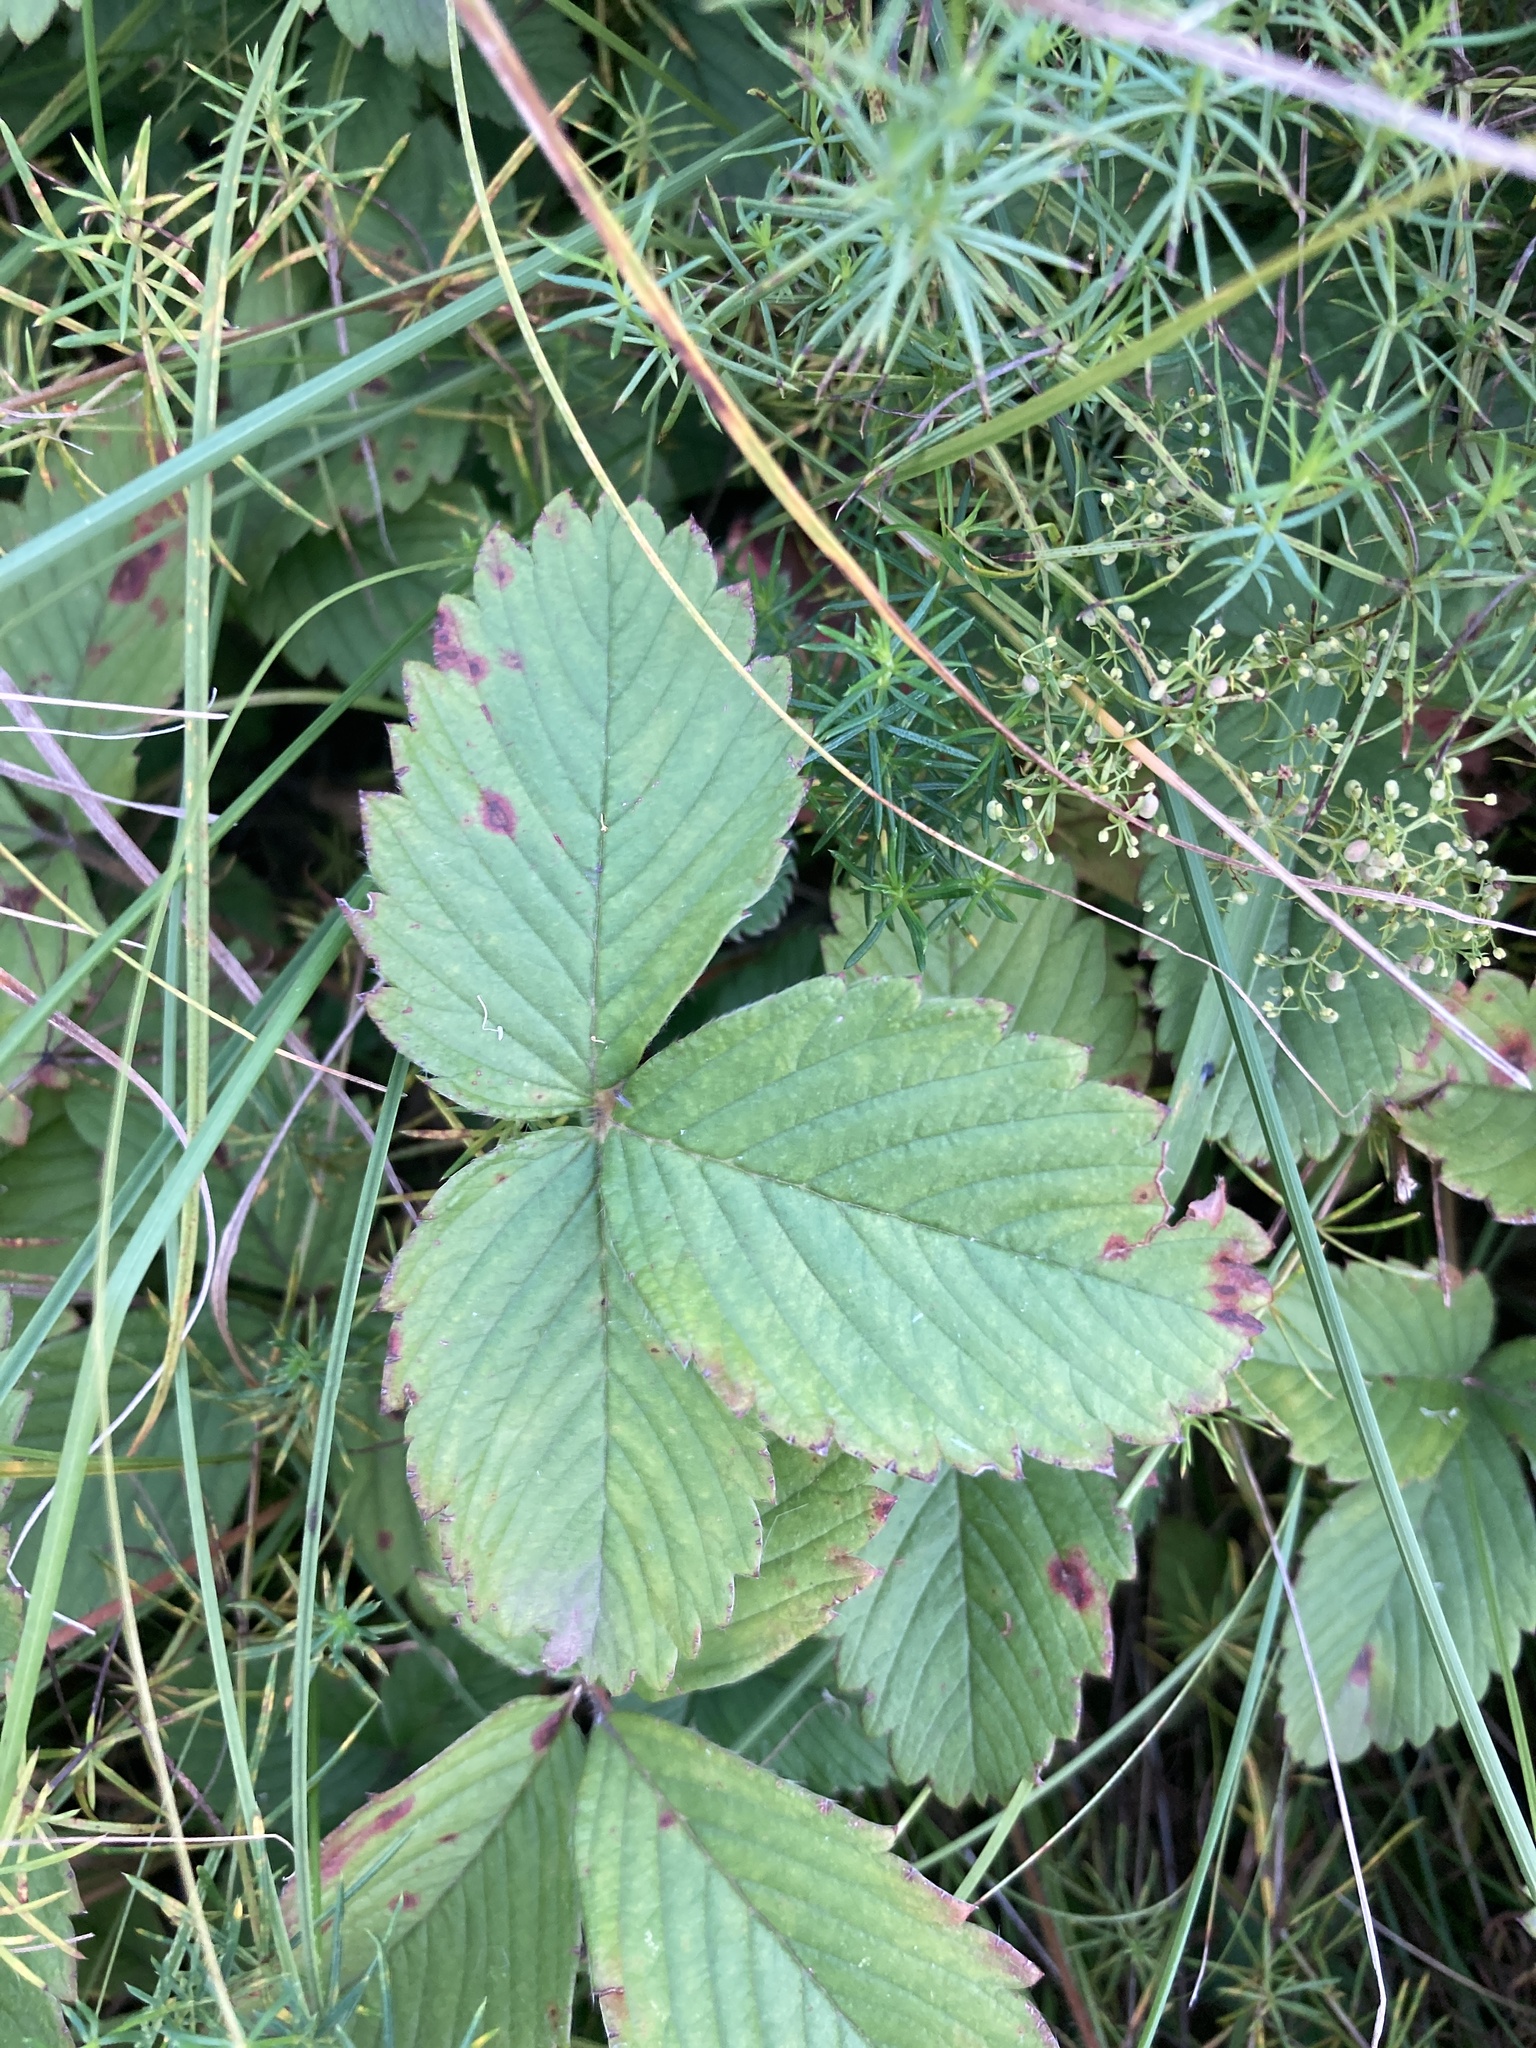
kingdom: Plantae
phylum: Tracheophyta
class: Magnoliopsida
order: Rosales
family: Rosaceae
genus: Fragaria
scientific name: Fragaria viridis
